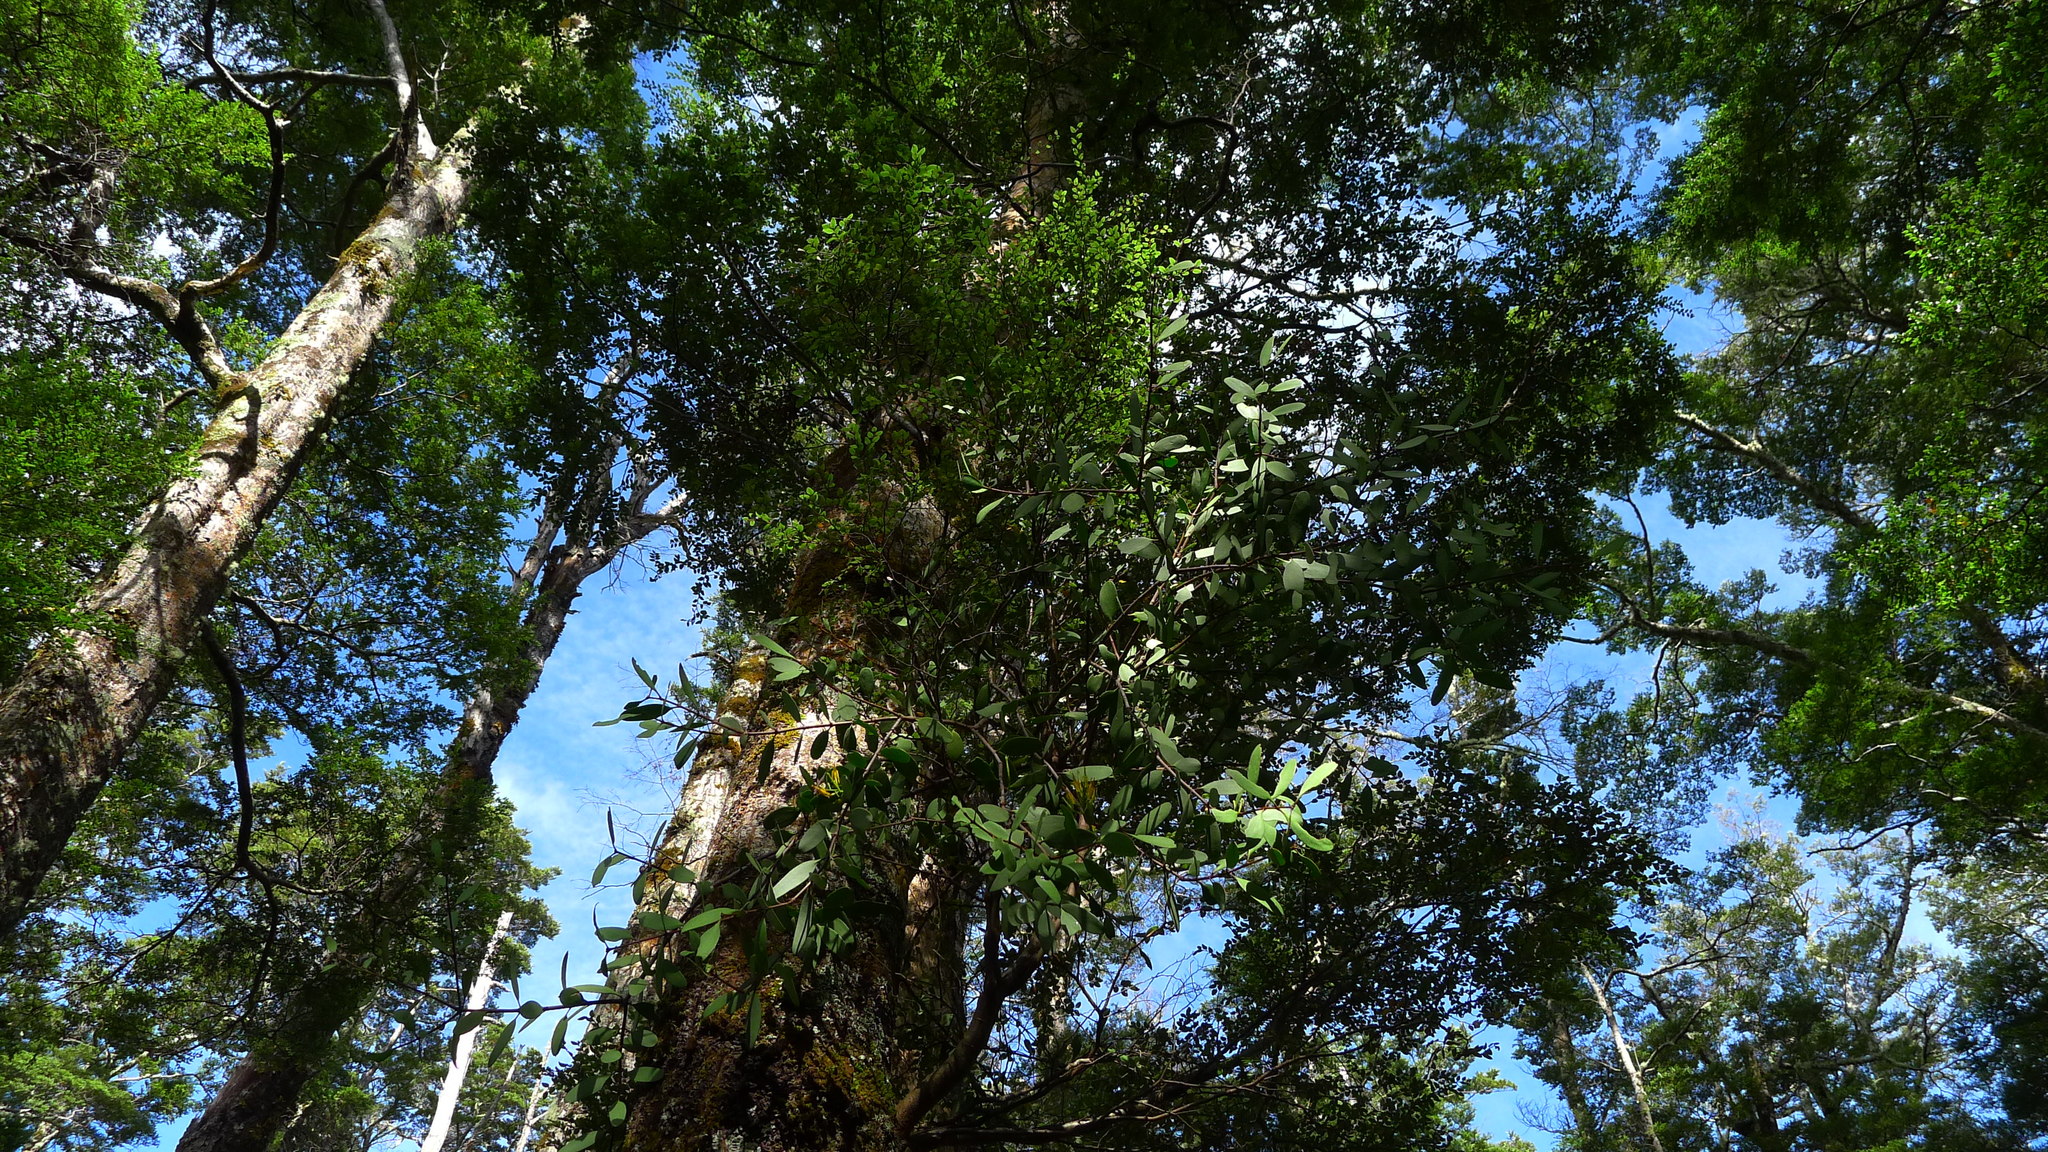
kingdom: Plantae
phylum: Tracheophyta
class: Magnoliopsida
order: Santalales
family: Loranthaceae
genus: Alepis
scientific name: Alepis flavida
